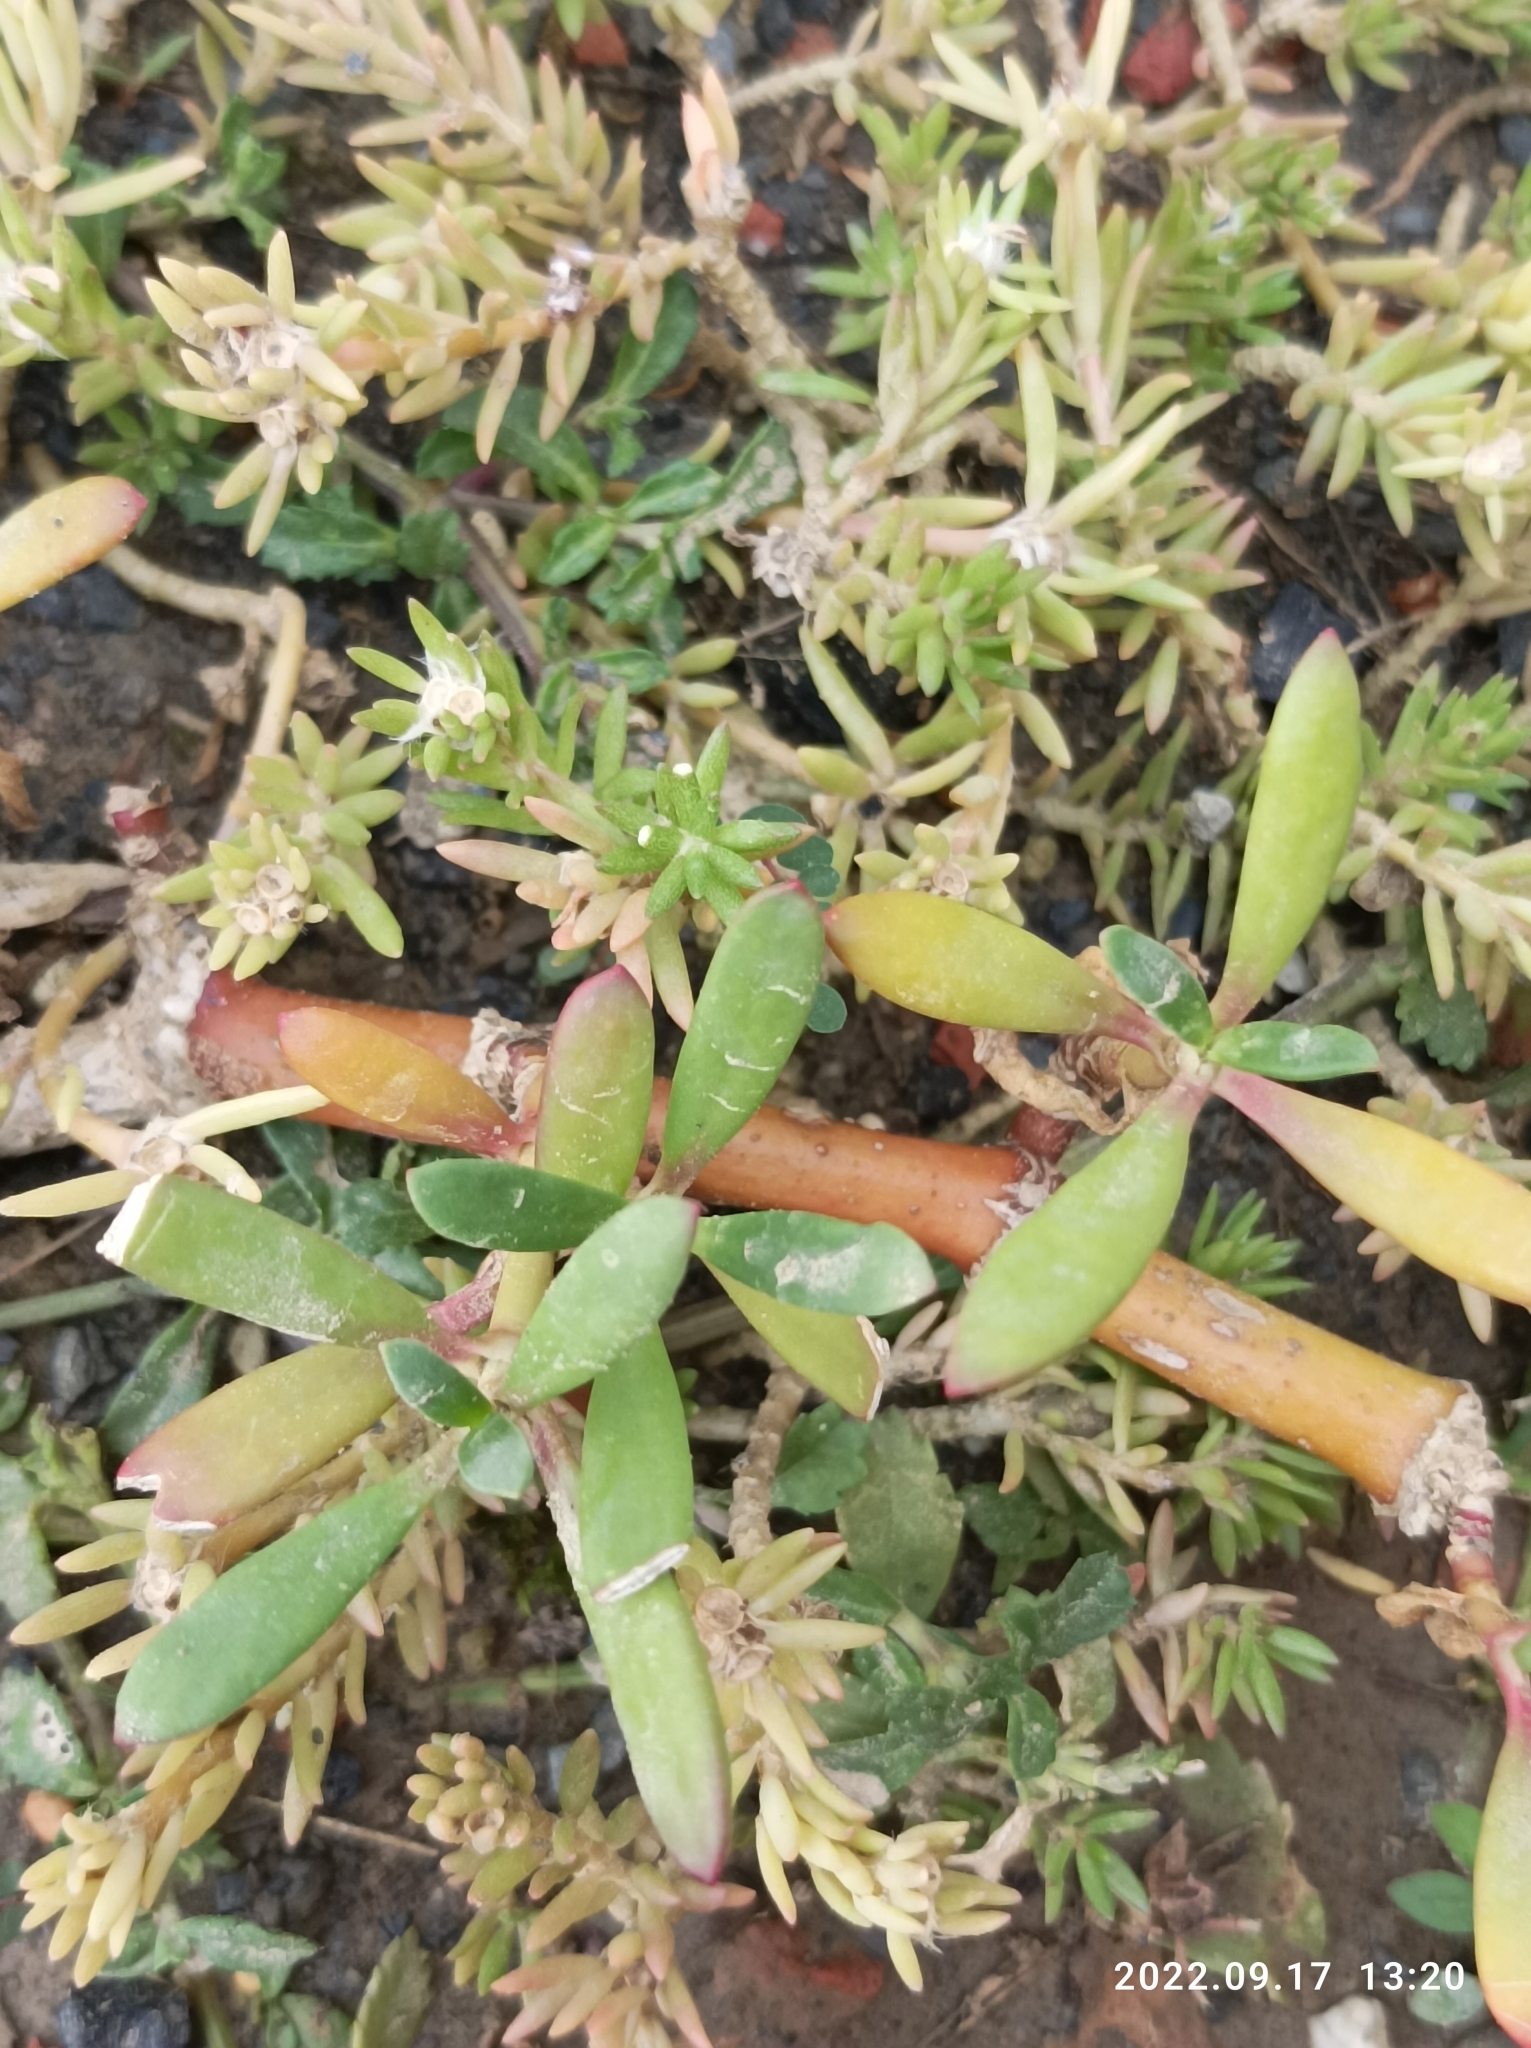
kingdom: Plantae
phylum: Tracheophyta
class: Magnoliopsida
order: Caryophyllales
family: Aizoaceae
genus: Sesuvium
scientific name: Sesuvium portulacastrum
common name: Sea-purslane
